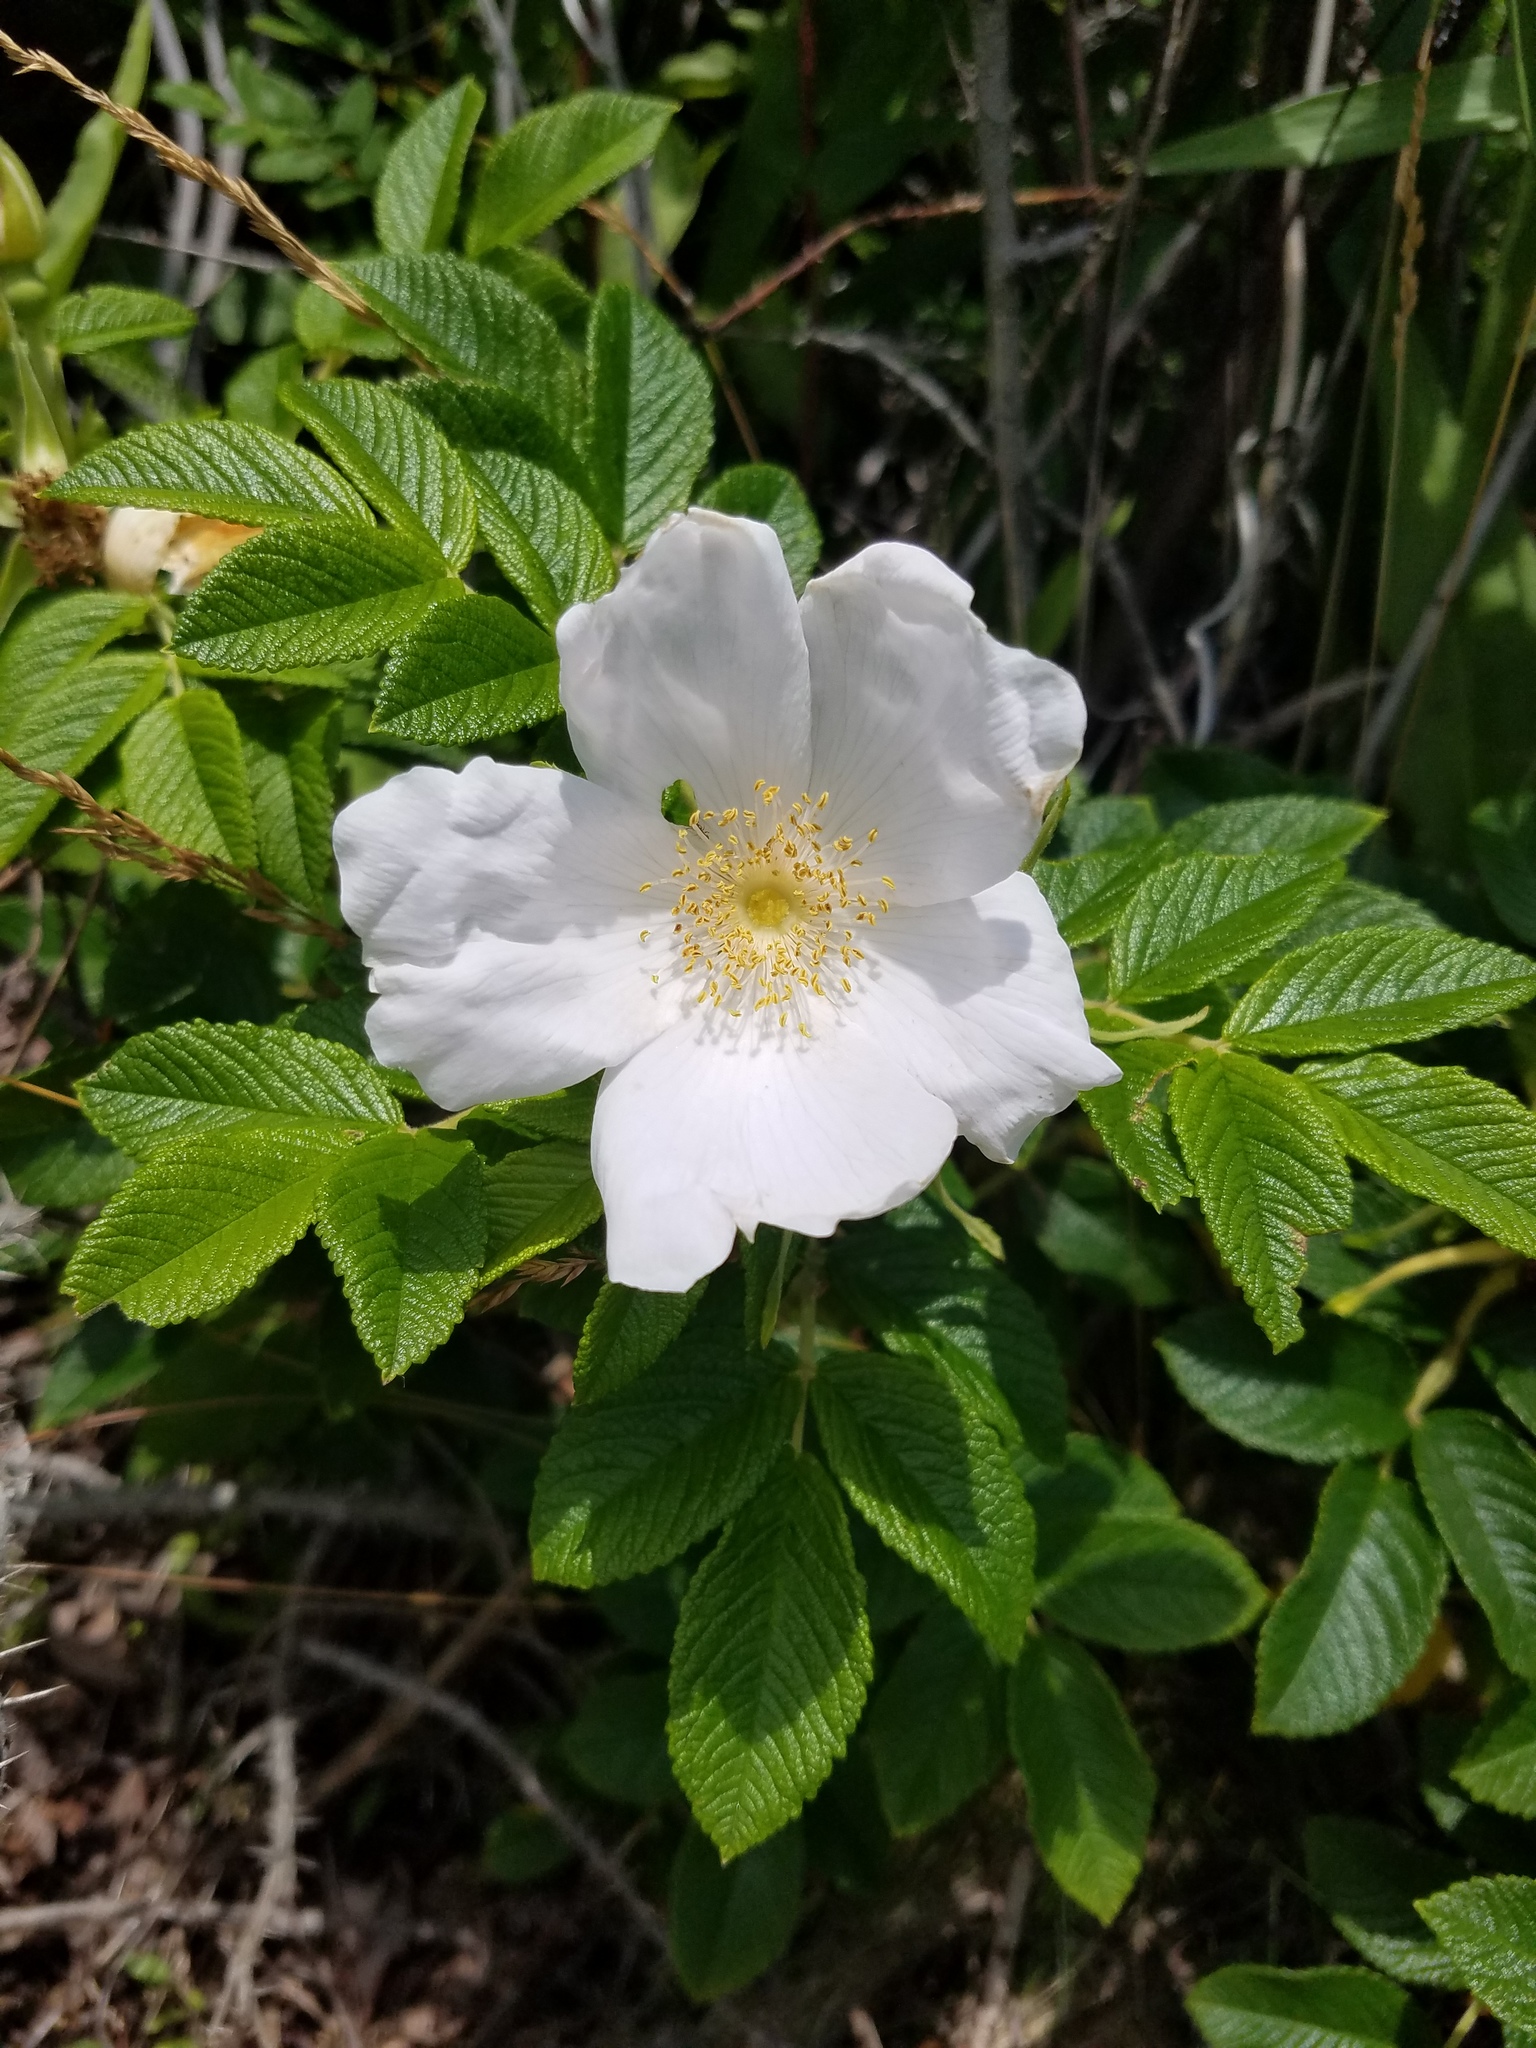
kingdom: Plantae
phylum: Tracheophyta
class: Magnoliopsida
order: Rosales
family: Rosaceae
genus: Rosa
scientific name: Rosa rugosa
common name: Japanese rose
